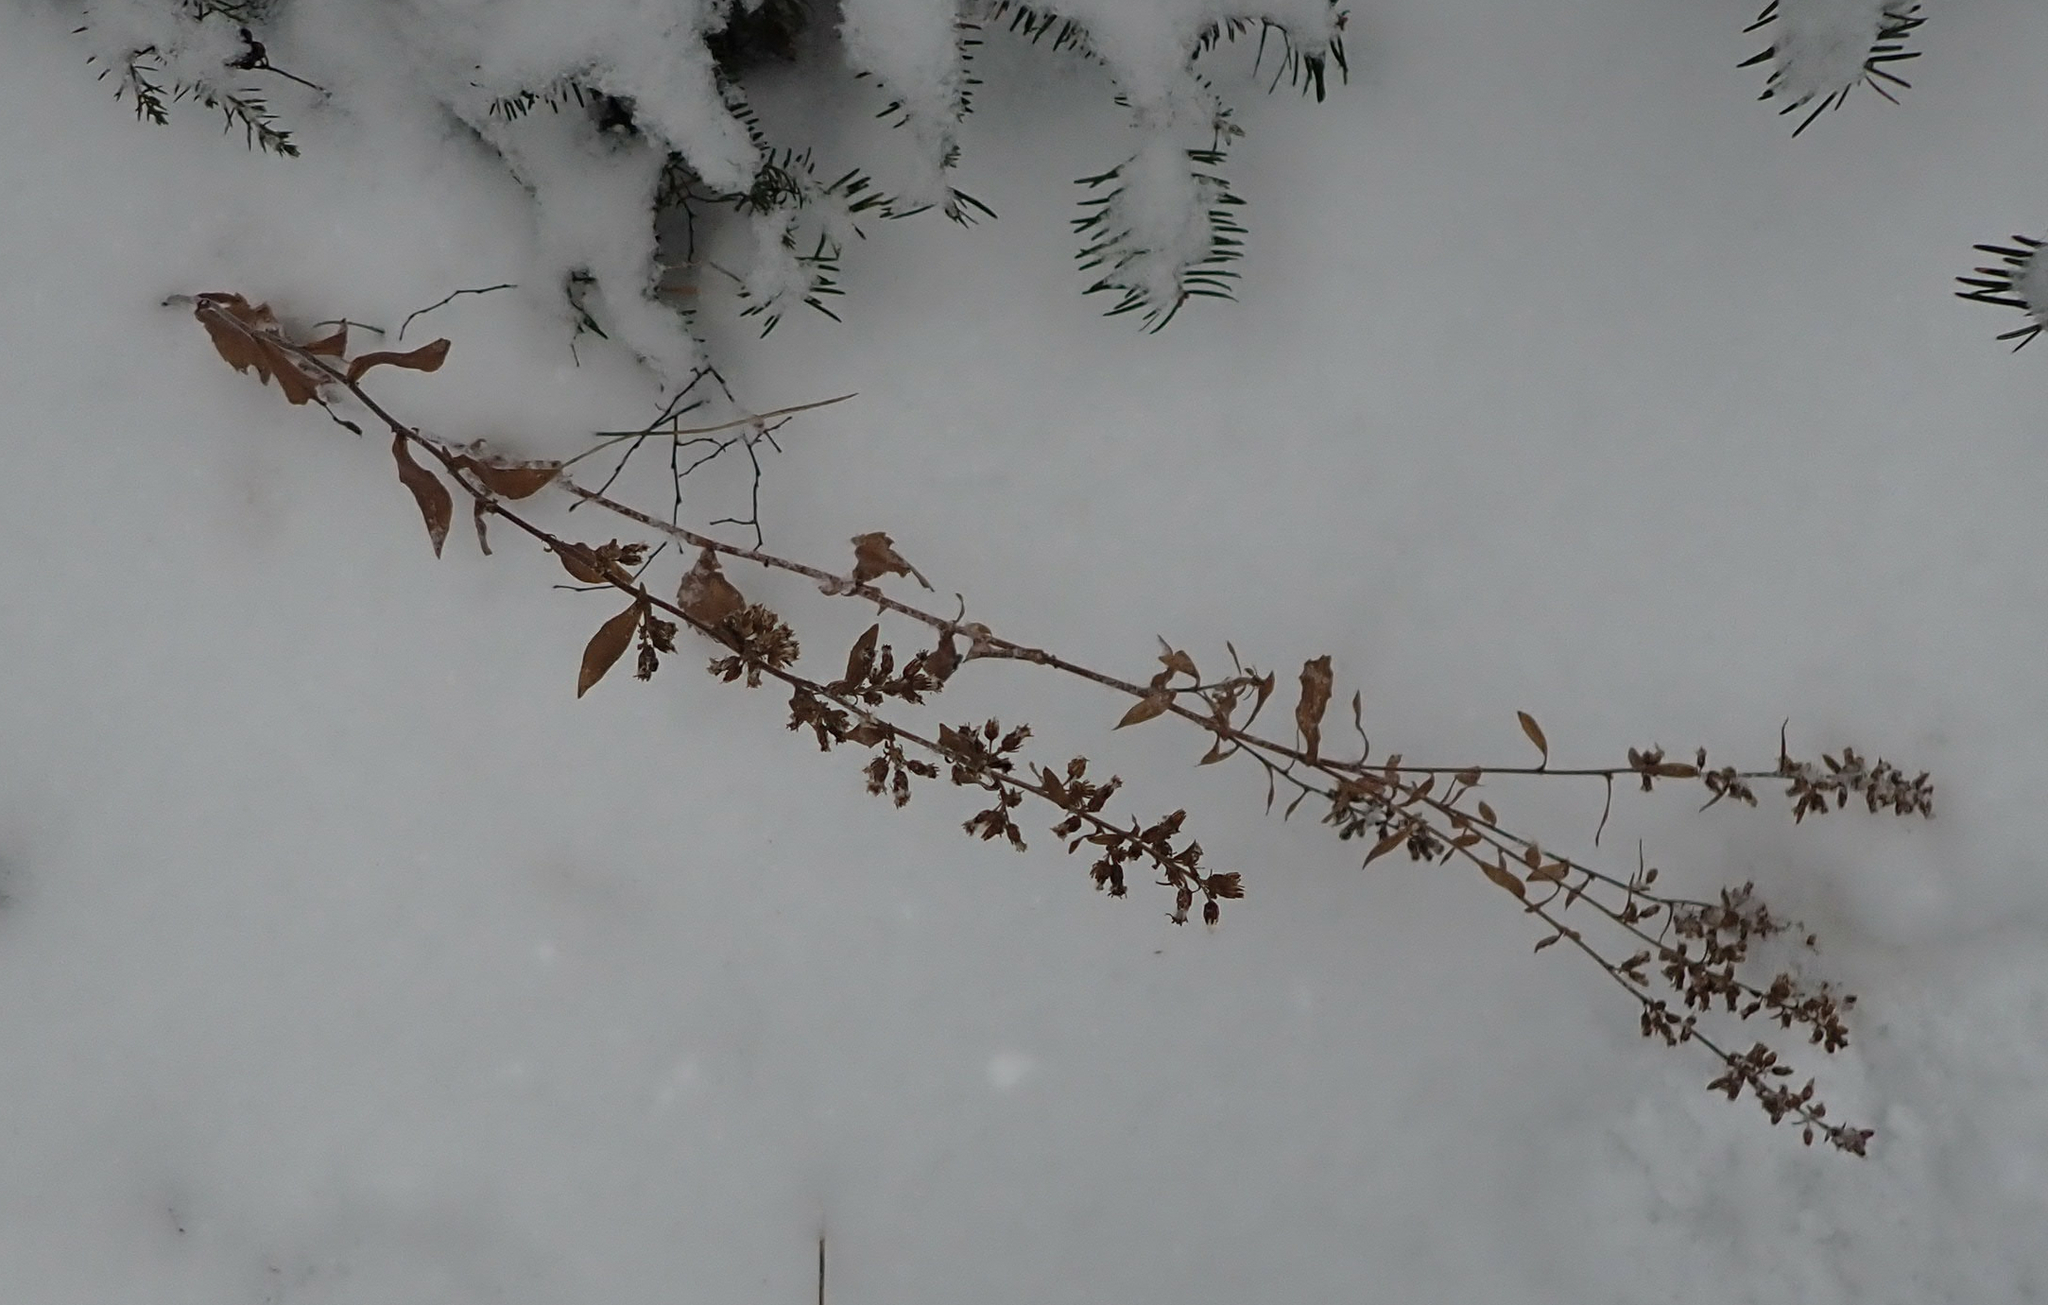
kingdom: Plantae
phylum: Tracheophyta
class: Magnoliopsida
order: Asterales
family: Asteraceae
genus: Solidago
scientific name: Solidago hispida
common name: Hairy goldenrod
